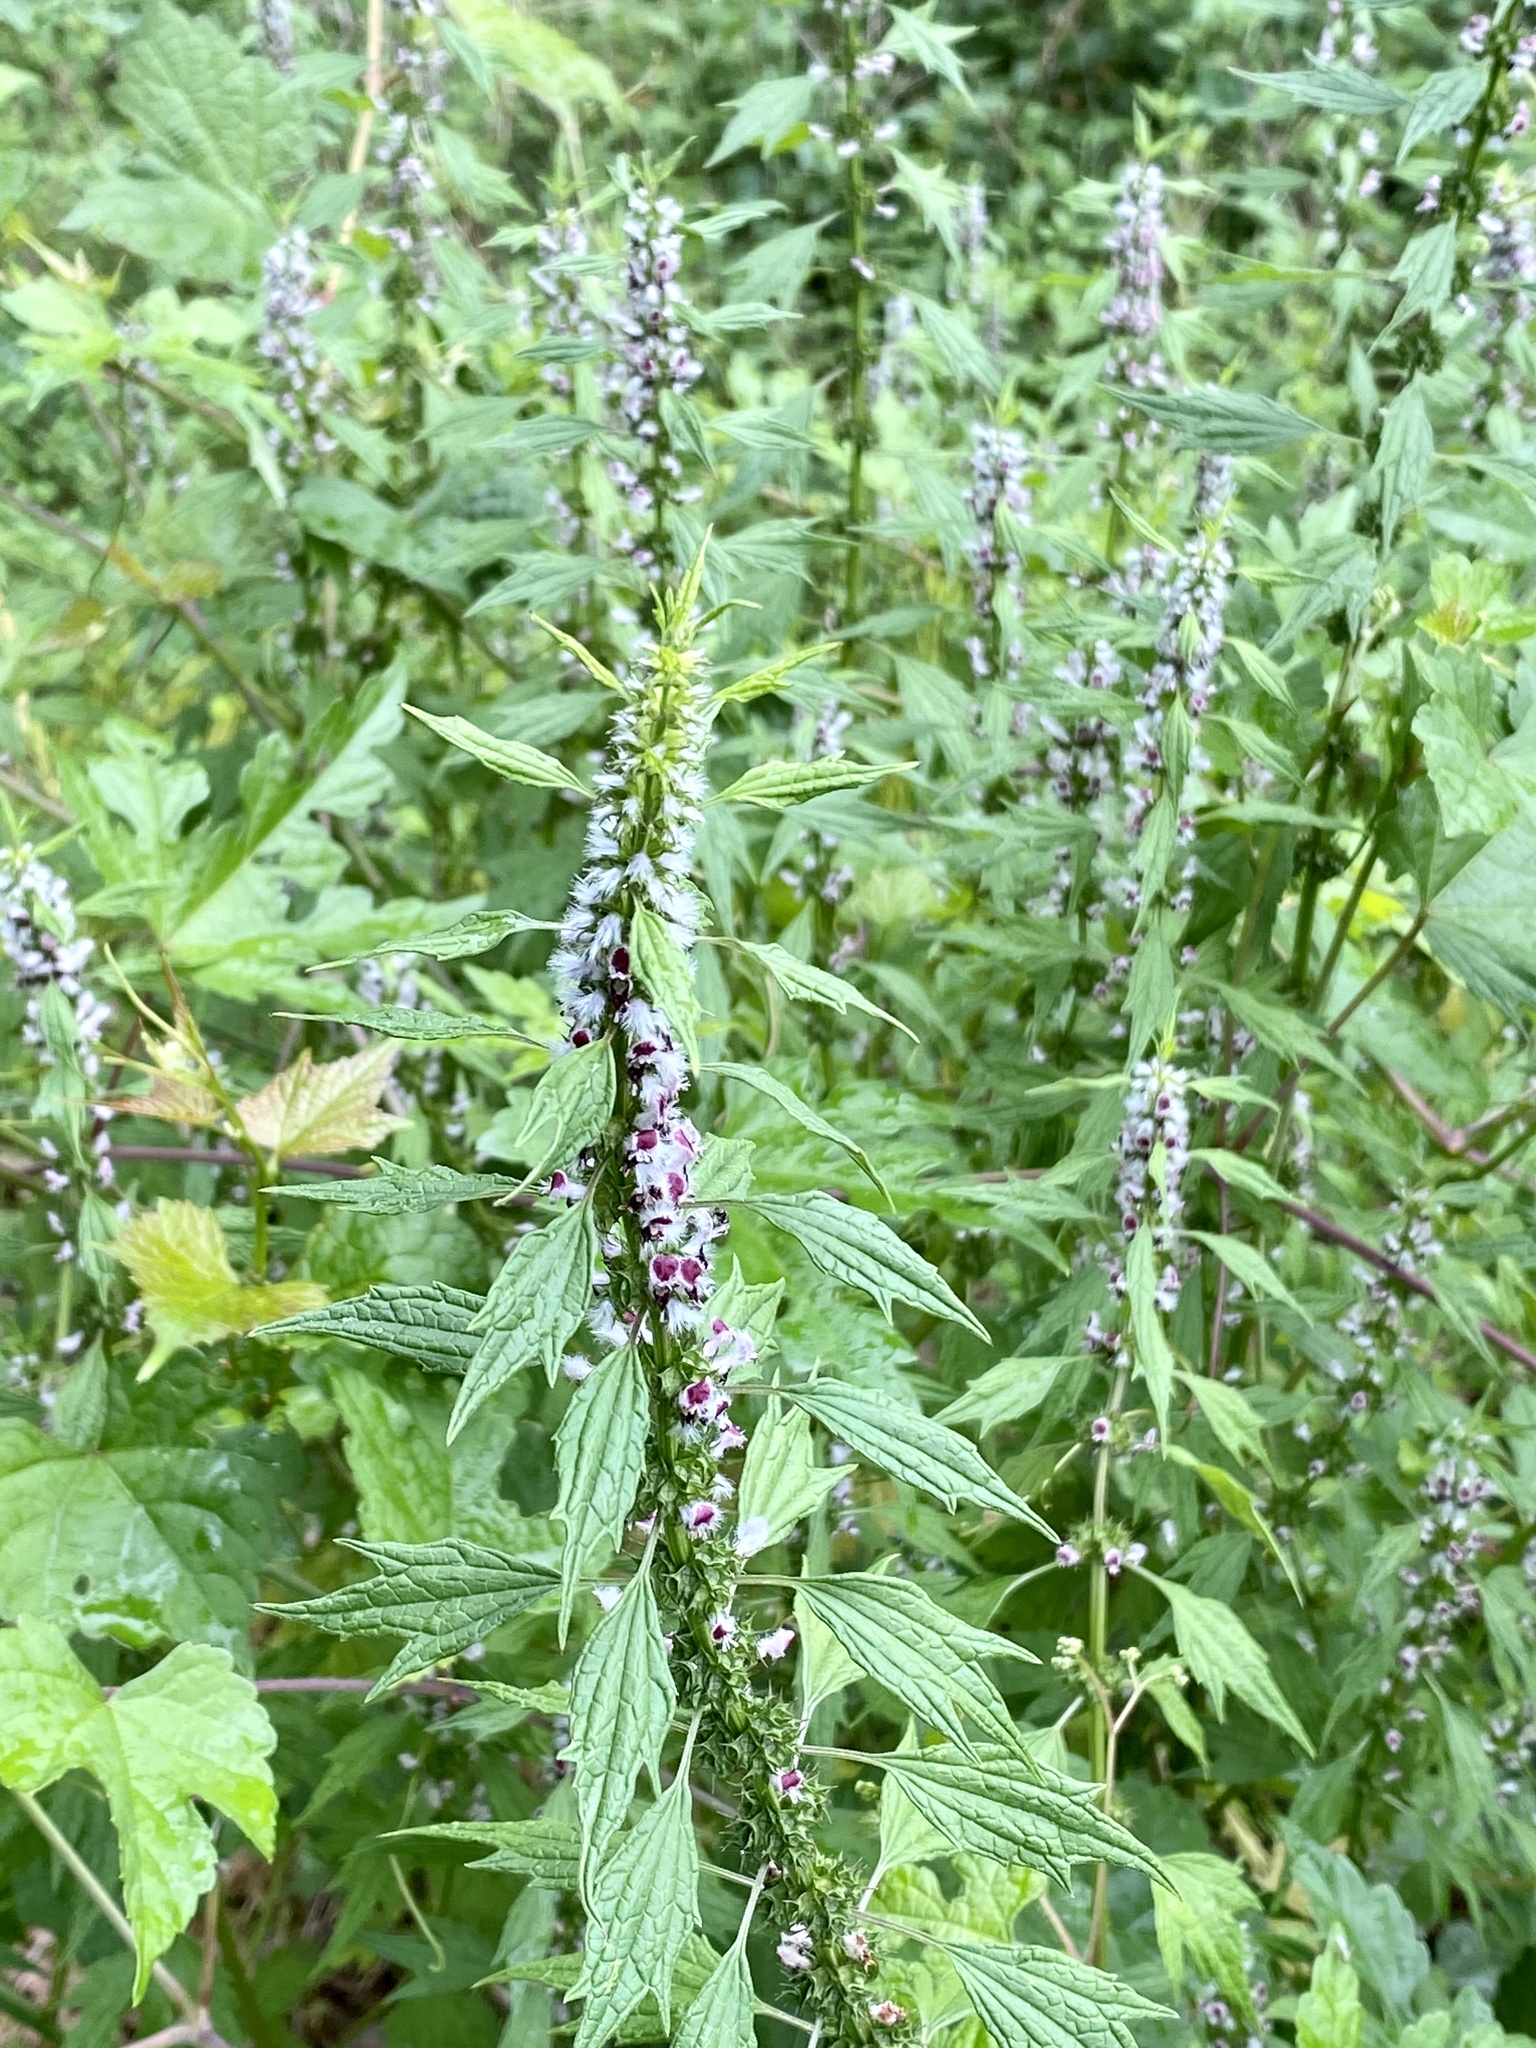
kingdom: Plantae
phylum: Tracheophyta
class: Magnoliopsida
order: Lamiales
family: Lamiaceae
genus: Leonurus
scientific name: Leonurus cardiaca
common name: Motherwort
